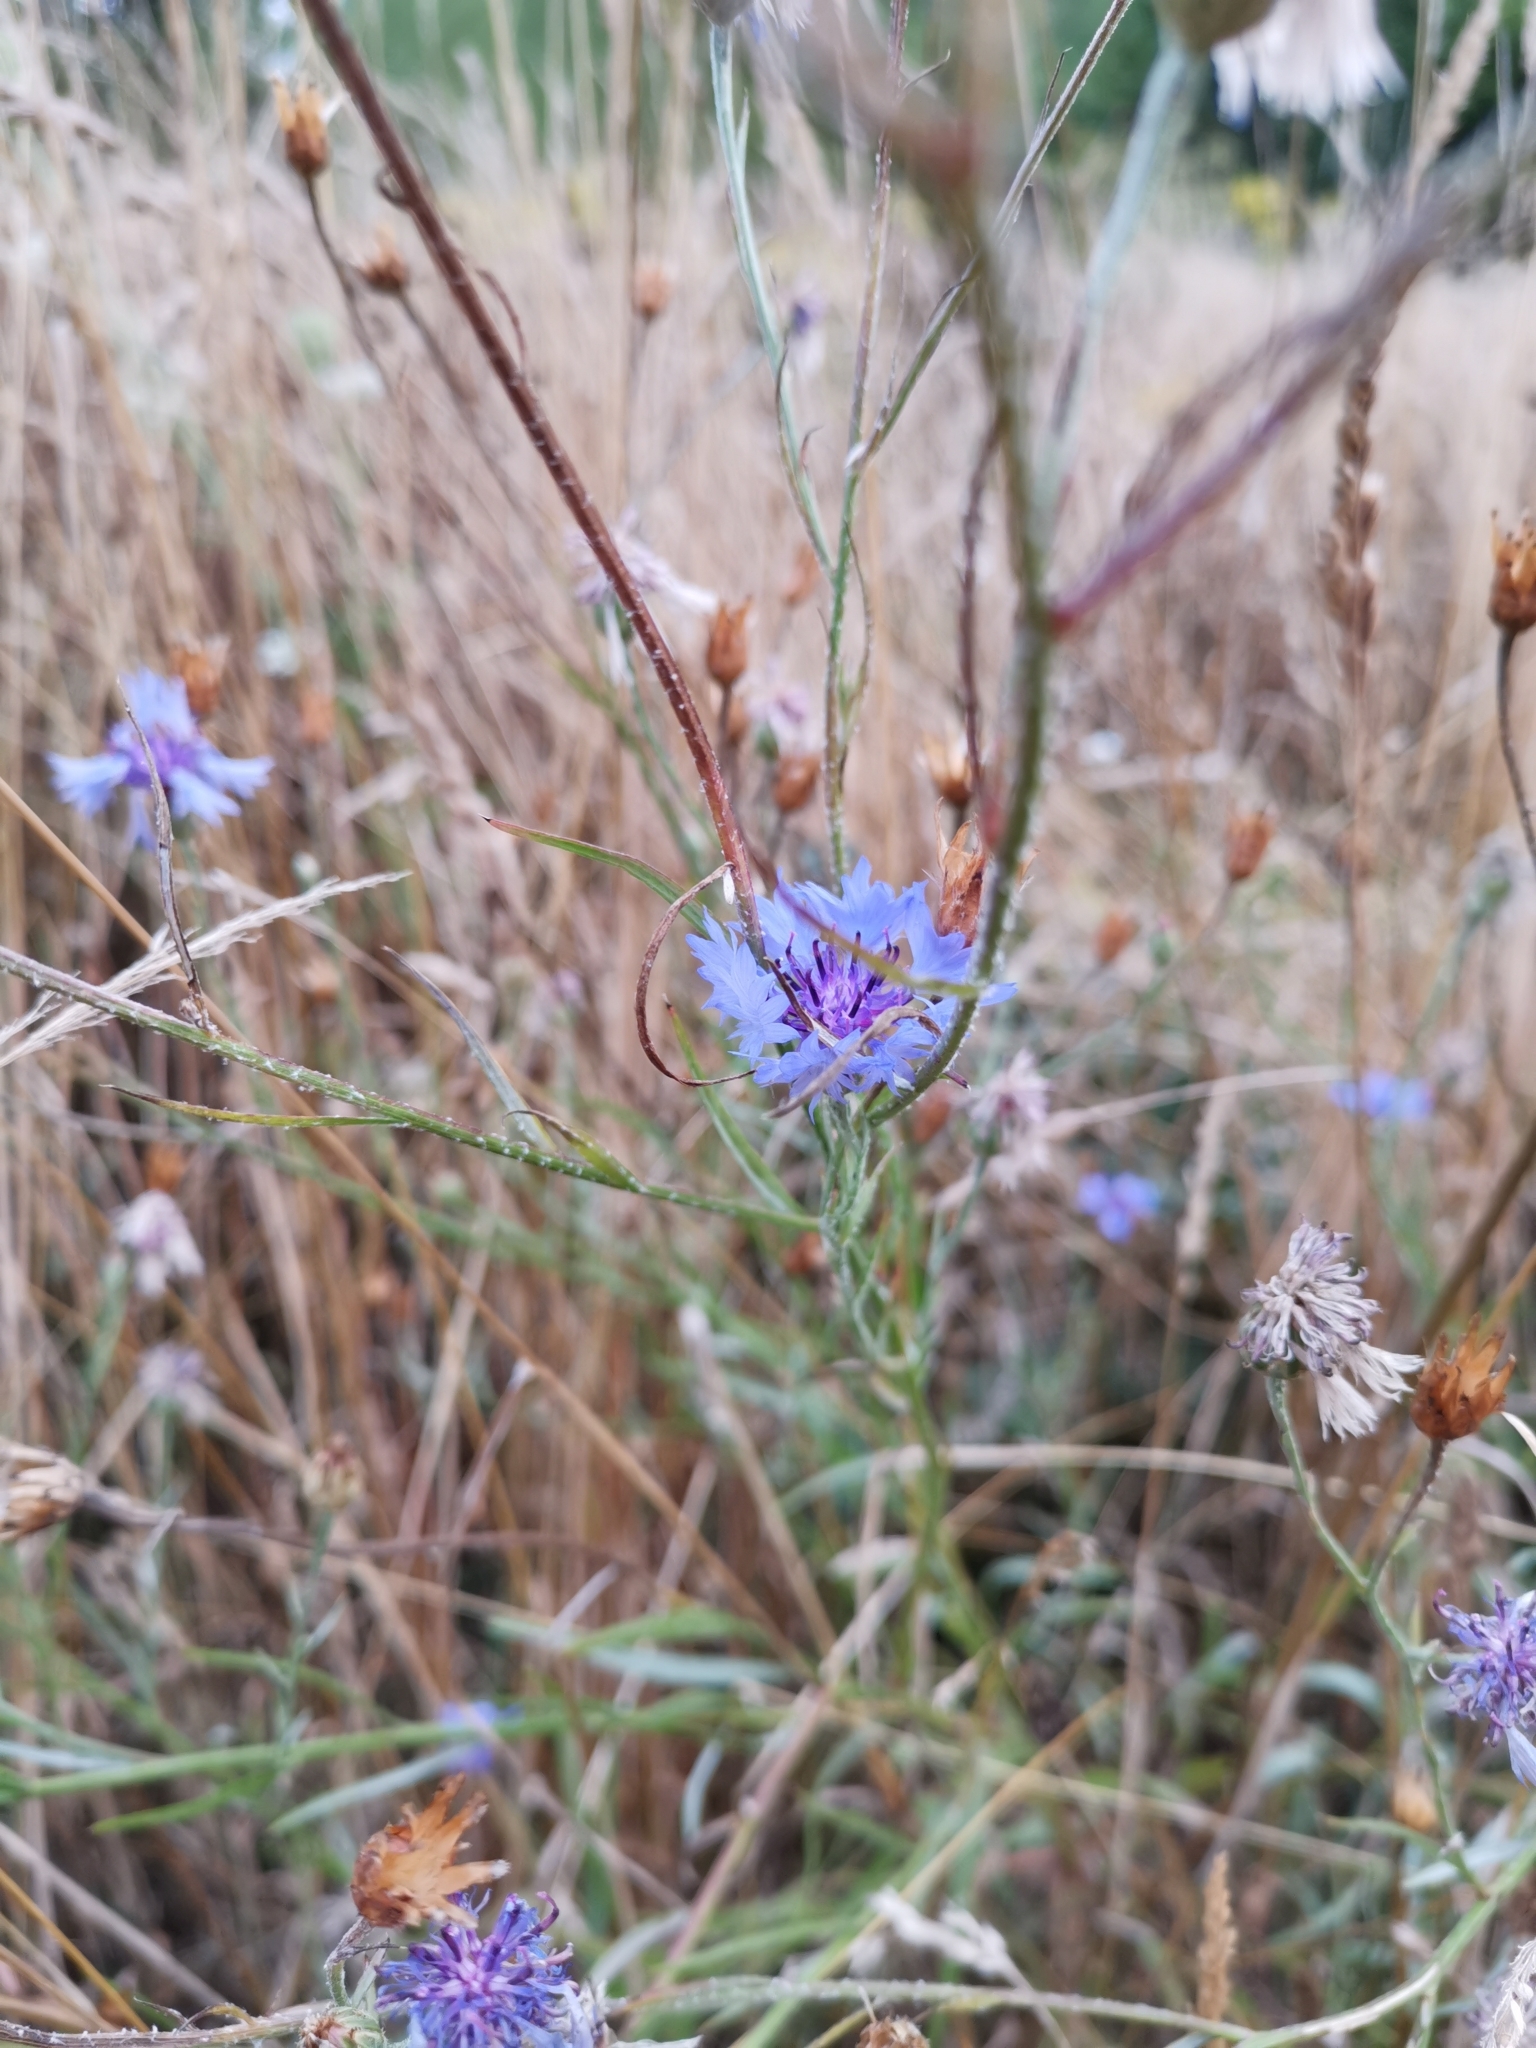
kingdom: Plantae
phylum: Tracheophyta
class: Magnoliopsida
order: Asterales
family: Asteraceae
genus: Centaurea
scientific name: Centaurea cyanus
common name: Cornflower
